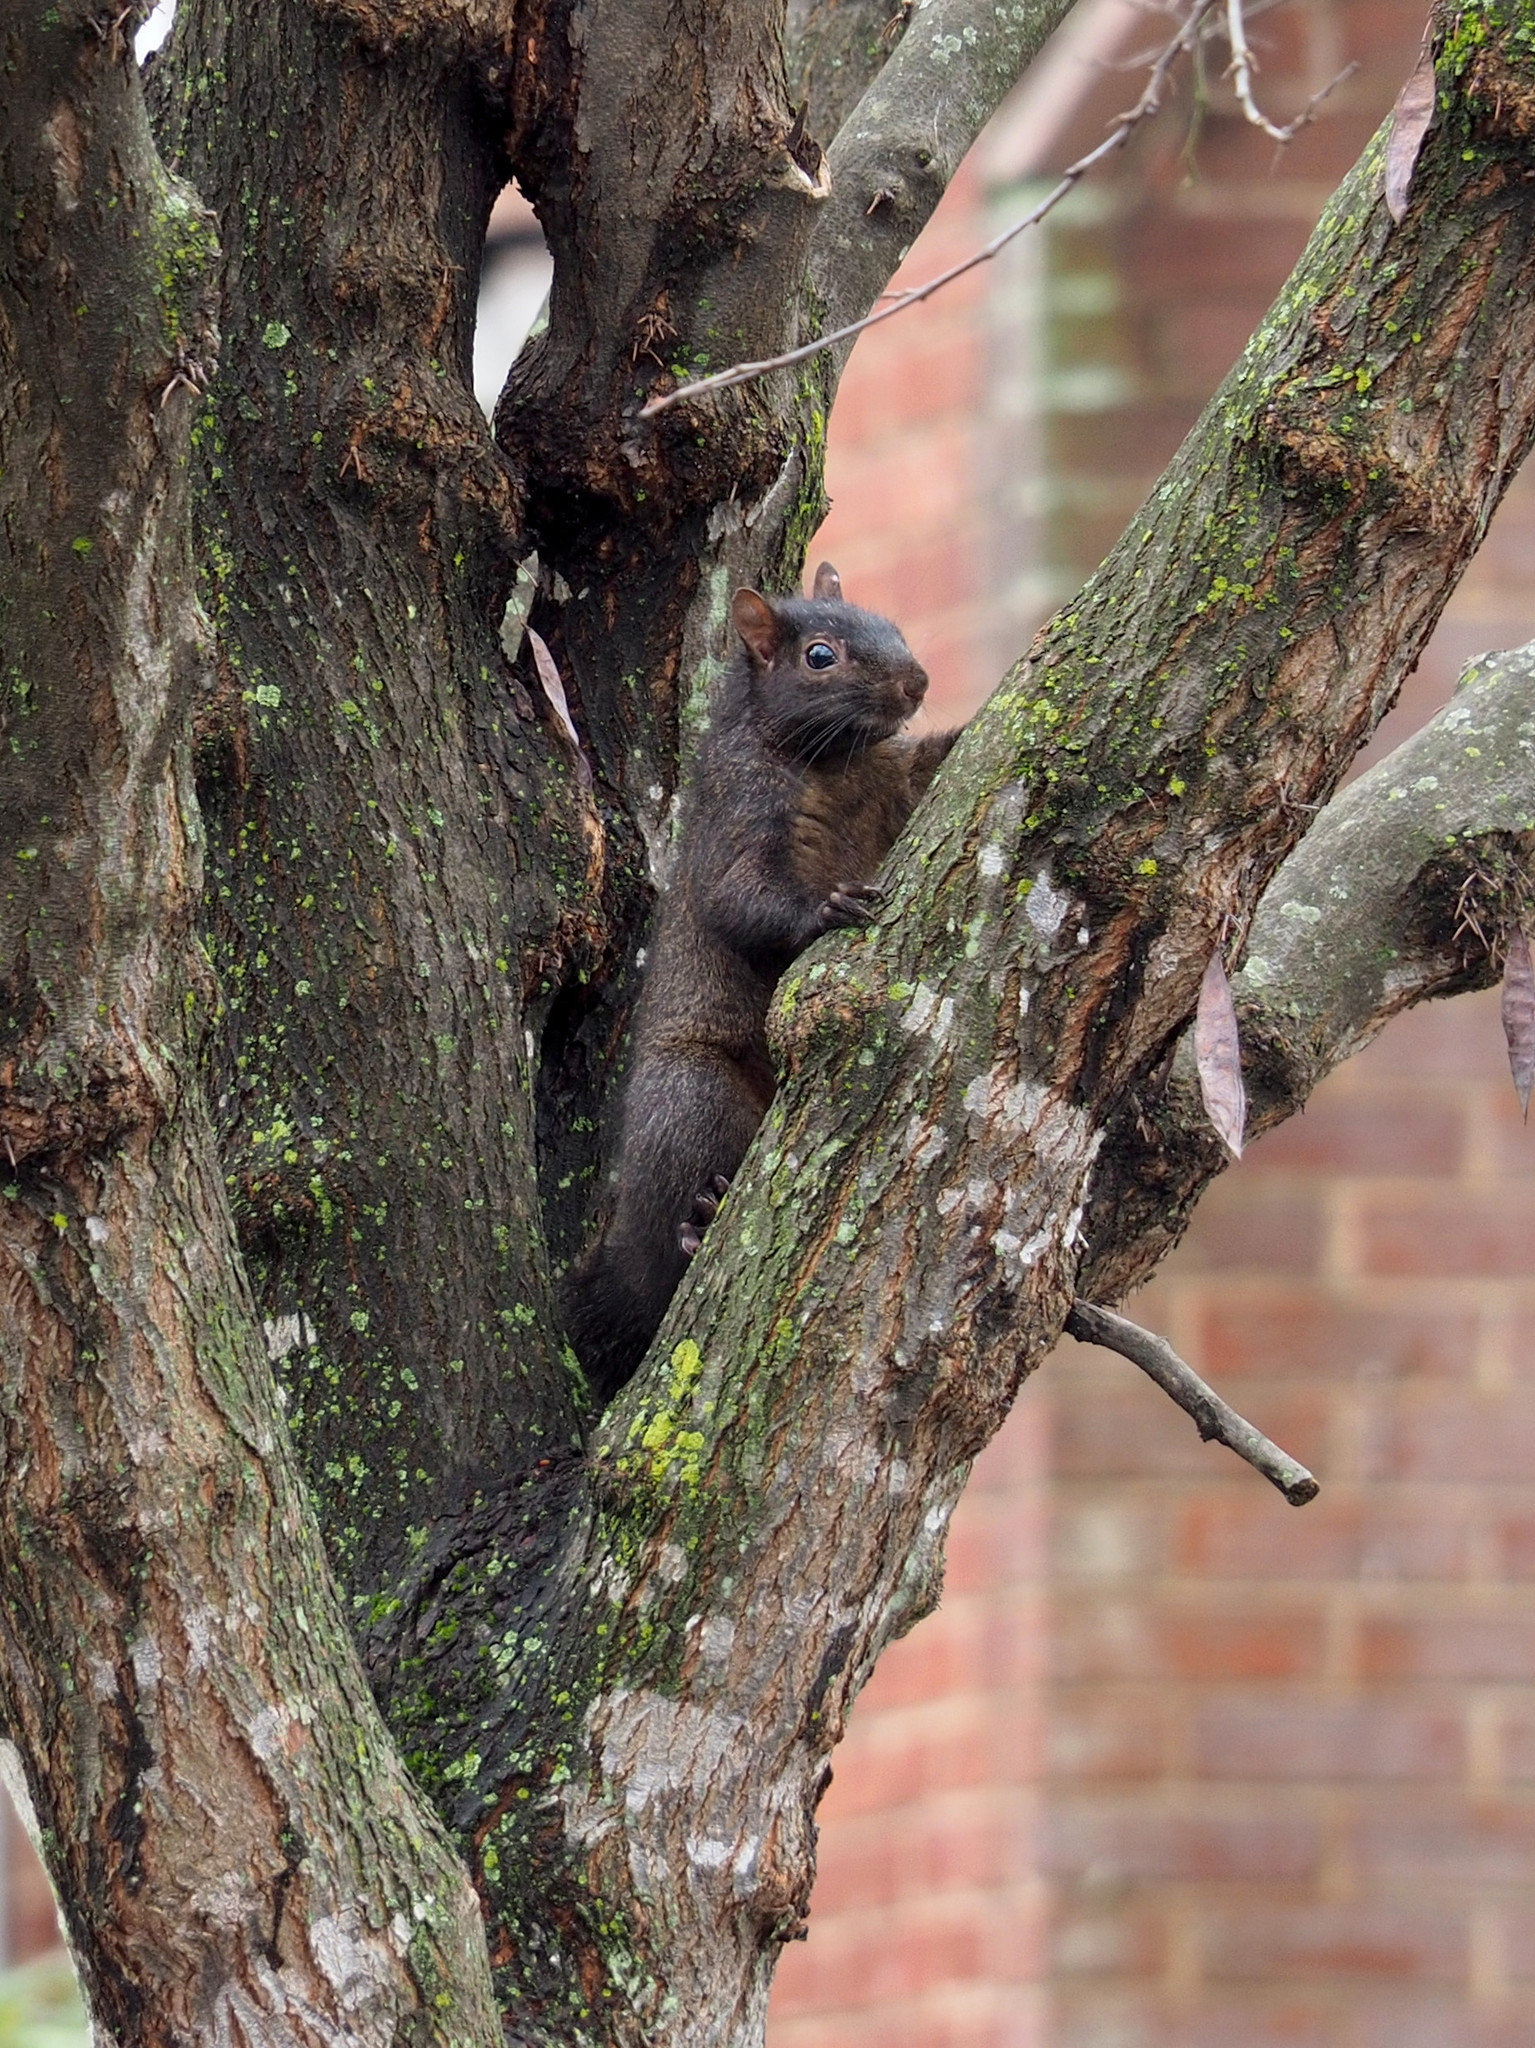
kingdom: Animalia
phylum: Chordata
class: Mammalia
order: Rodentia
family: Sciuridae
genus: Sciurus
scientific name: Sciurus carolinensis
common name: Eastern gray squirrel
